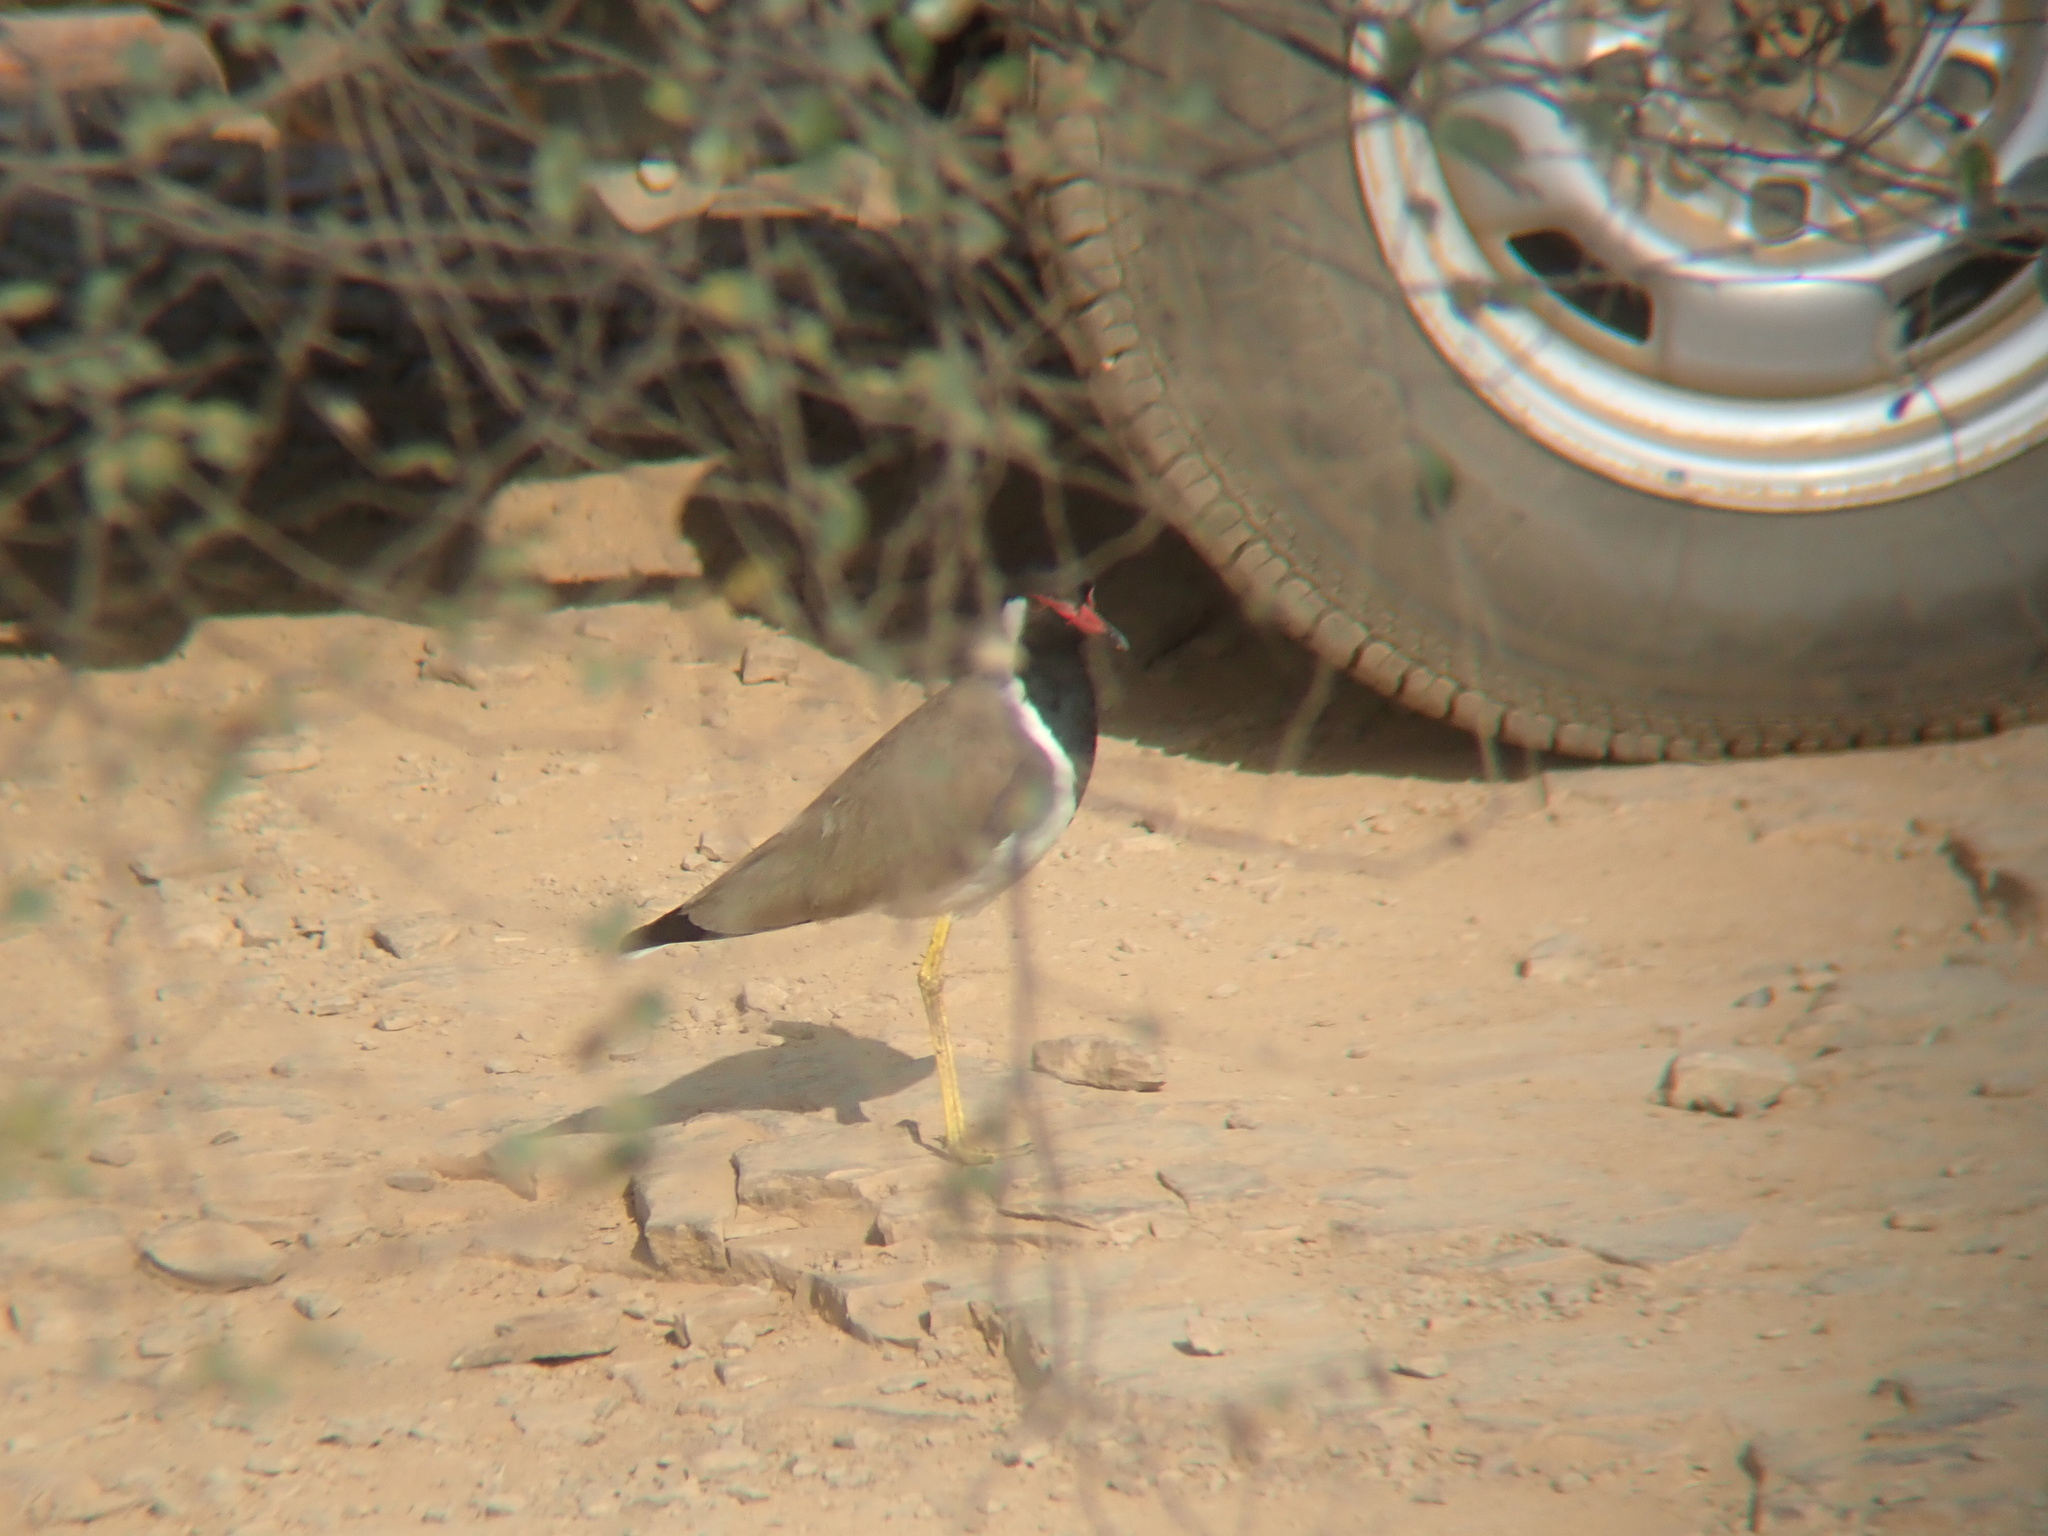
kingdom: Animalia
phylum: Chordata
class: Aves
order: Charadriiformes
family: Charadriidae
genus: Vanellus
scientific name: Vanellus indicus
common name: Red-wattled lapwing
